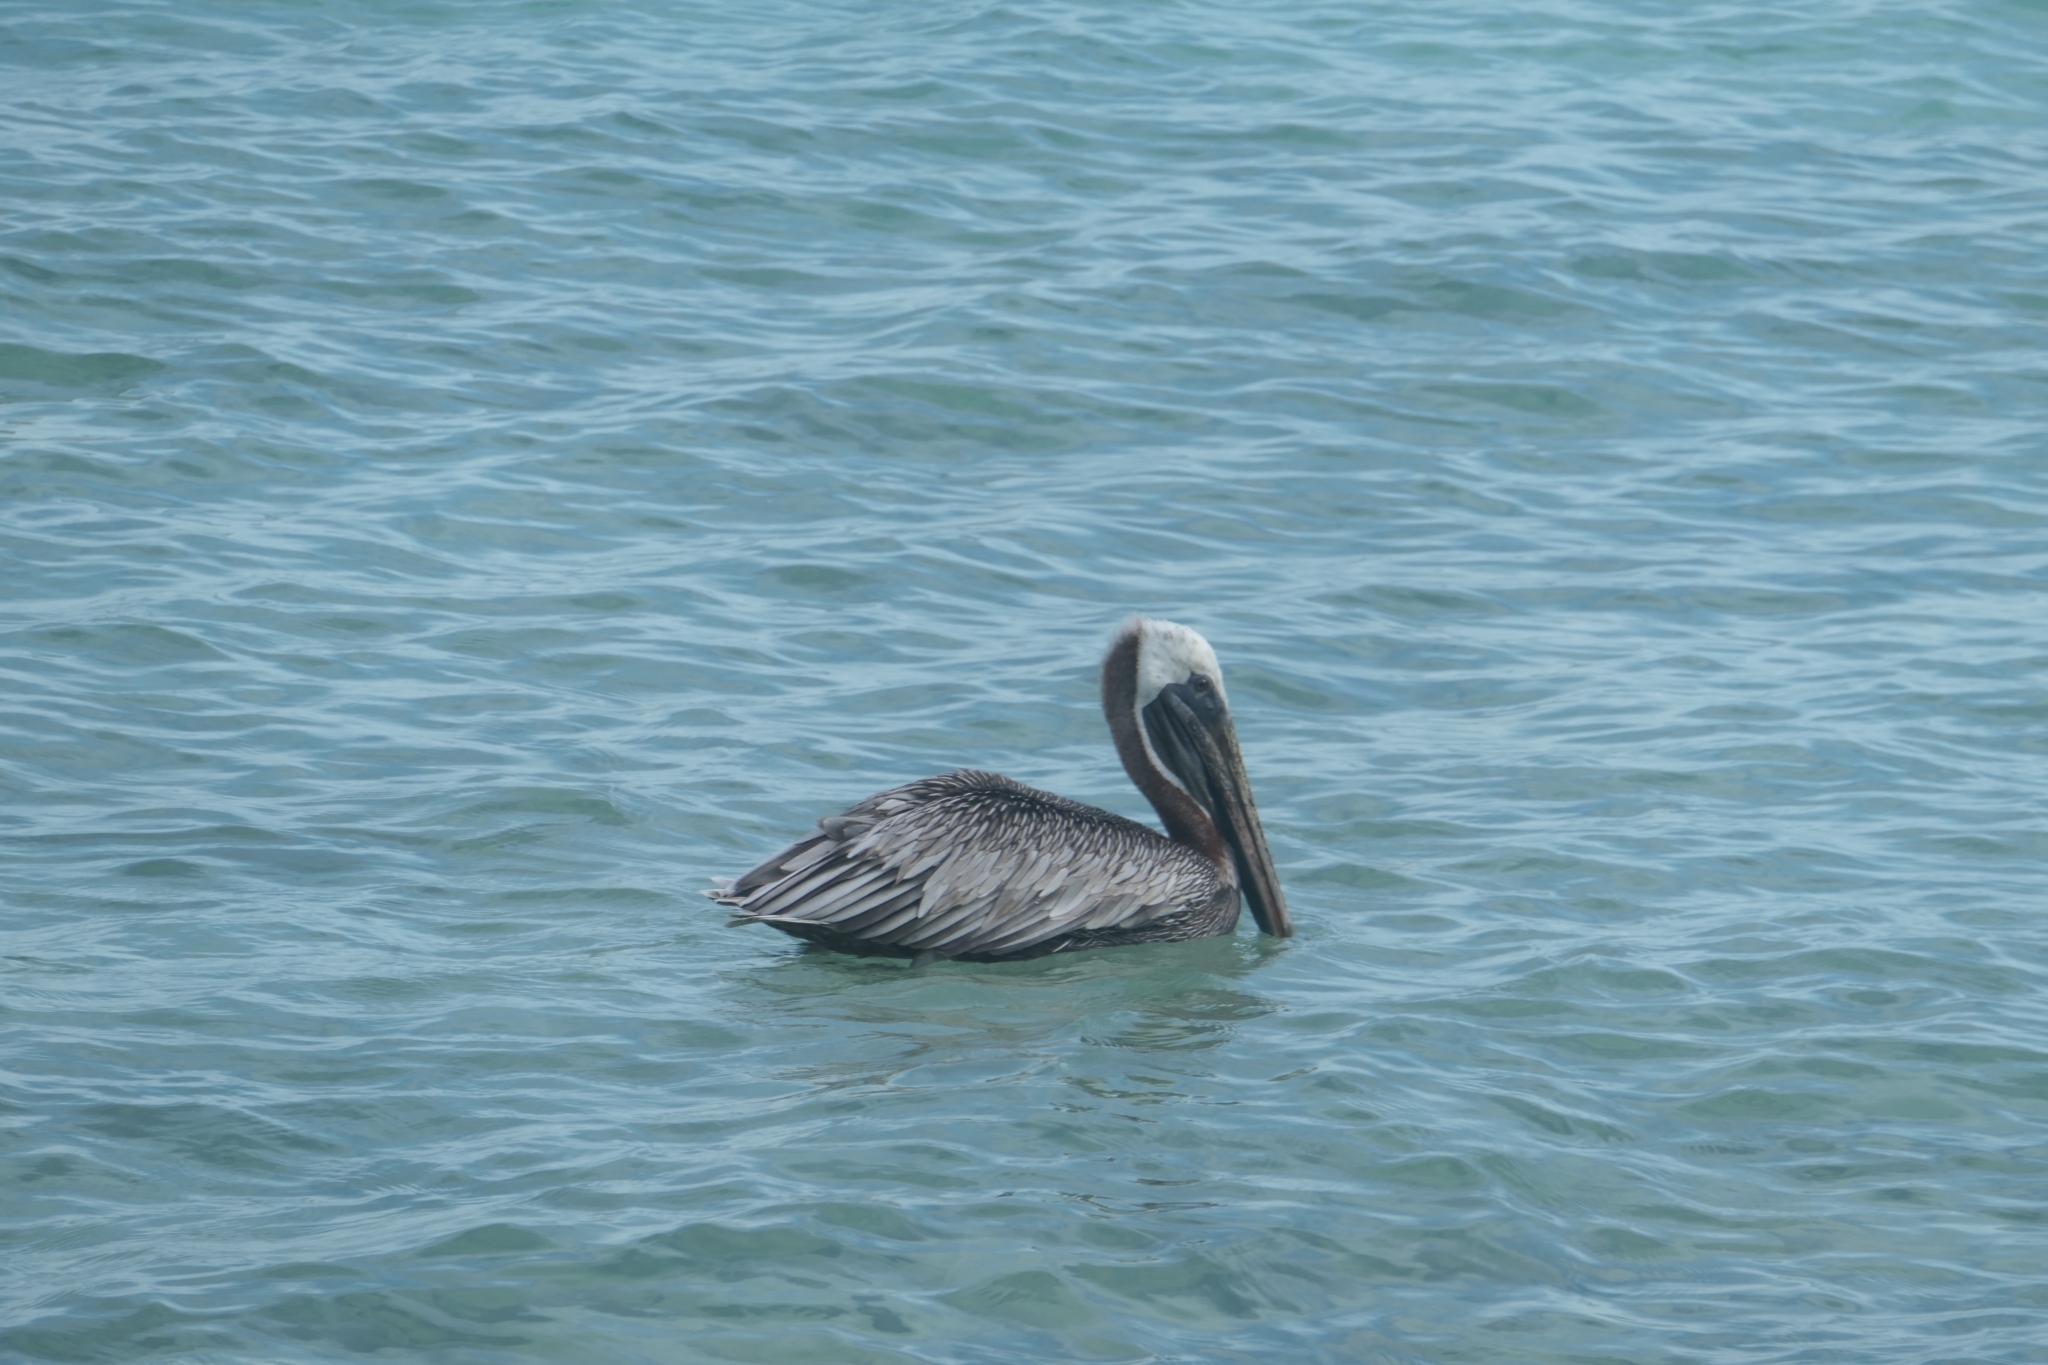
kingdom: Animalia
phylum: Chordata
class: Aves
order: Pelecaniformes
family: Pelecanidae
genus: Pelecanus
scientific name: Pelecanus occidentalis
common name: Brown pelican
